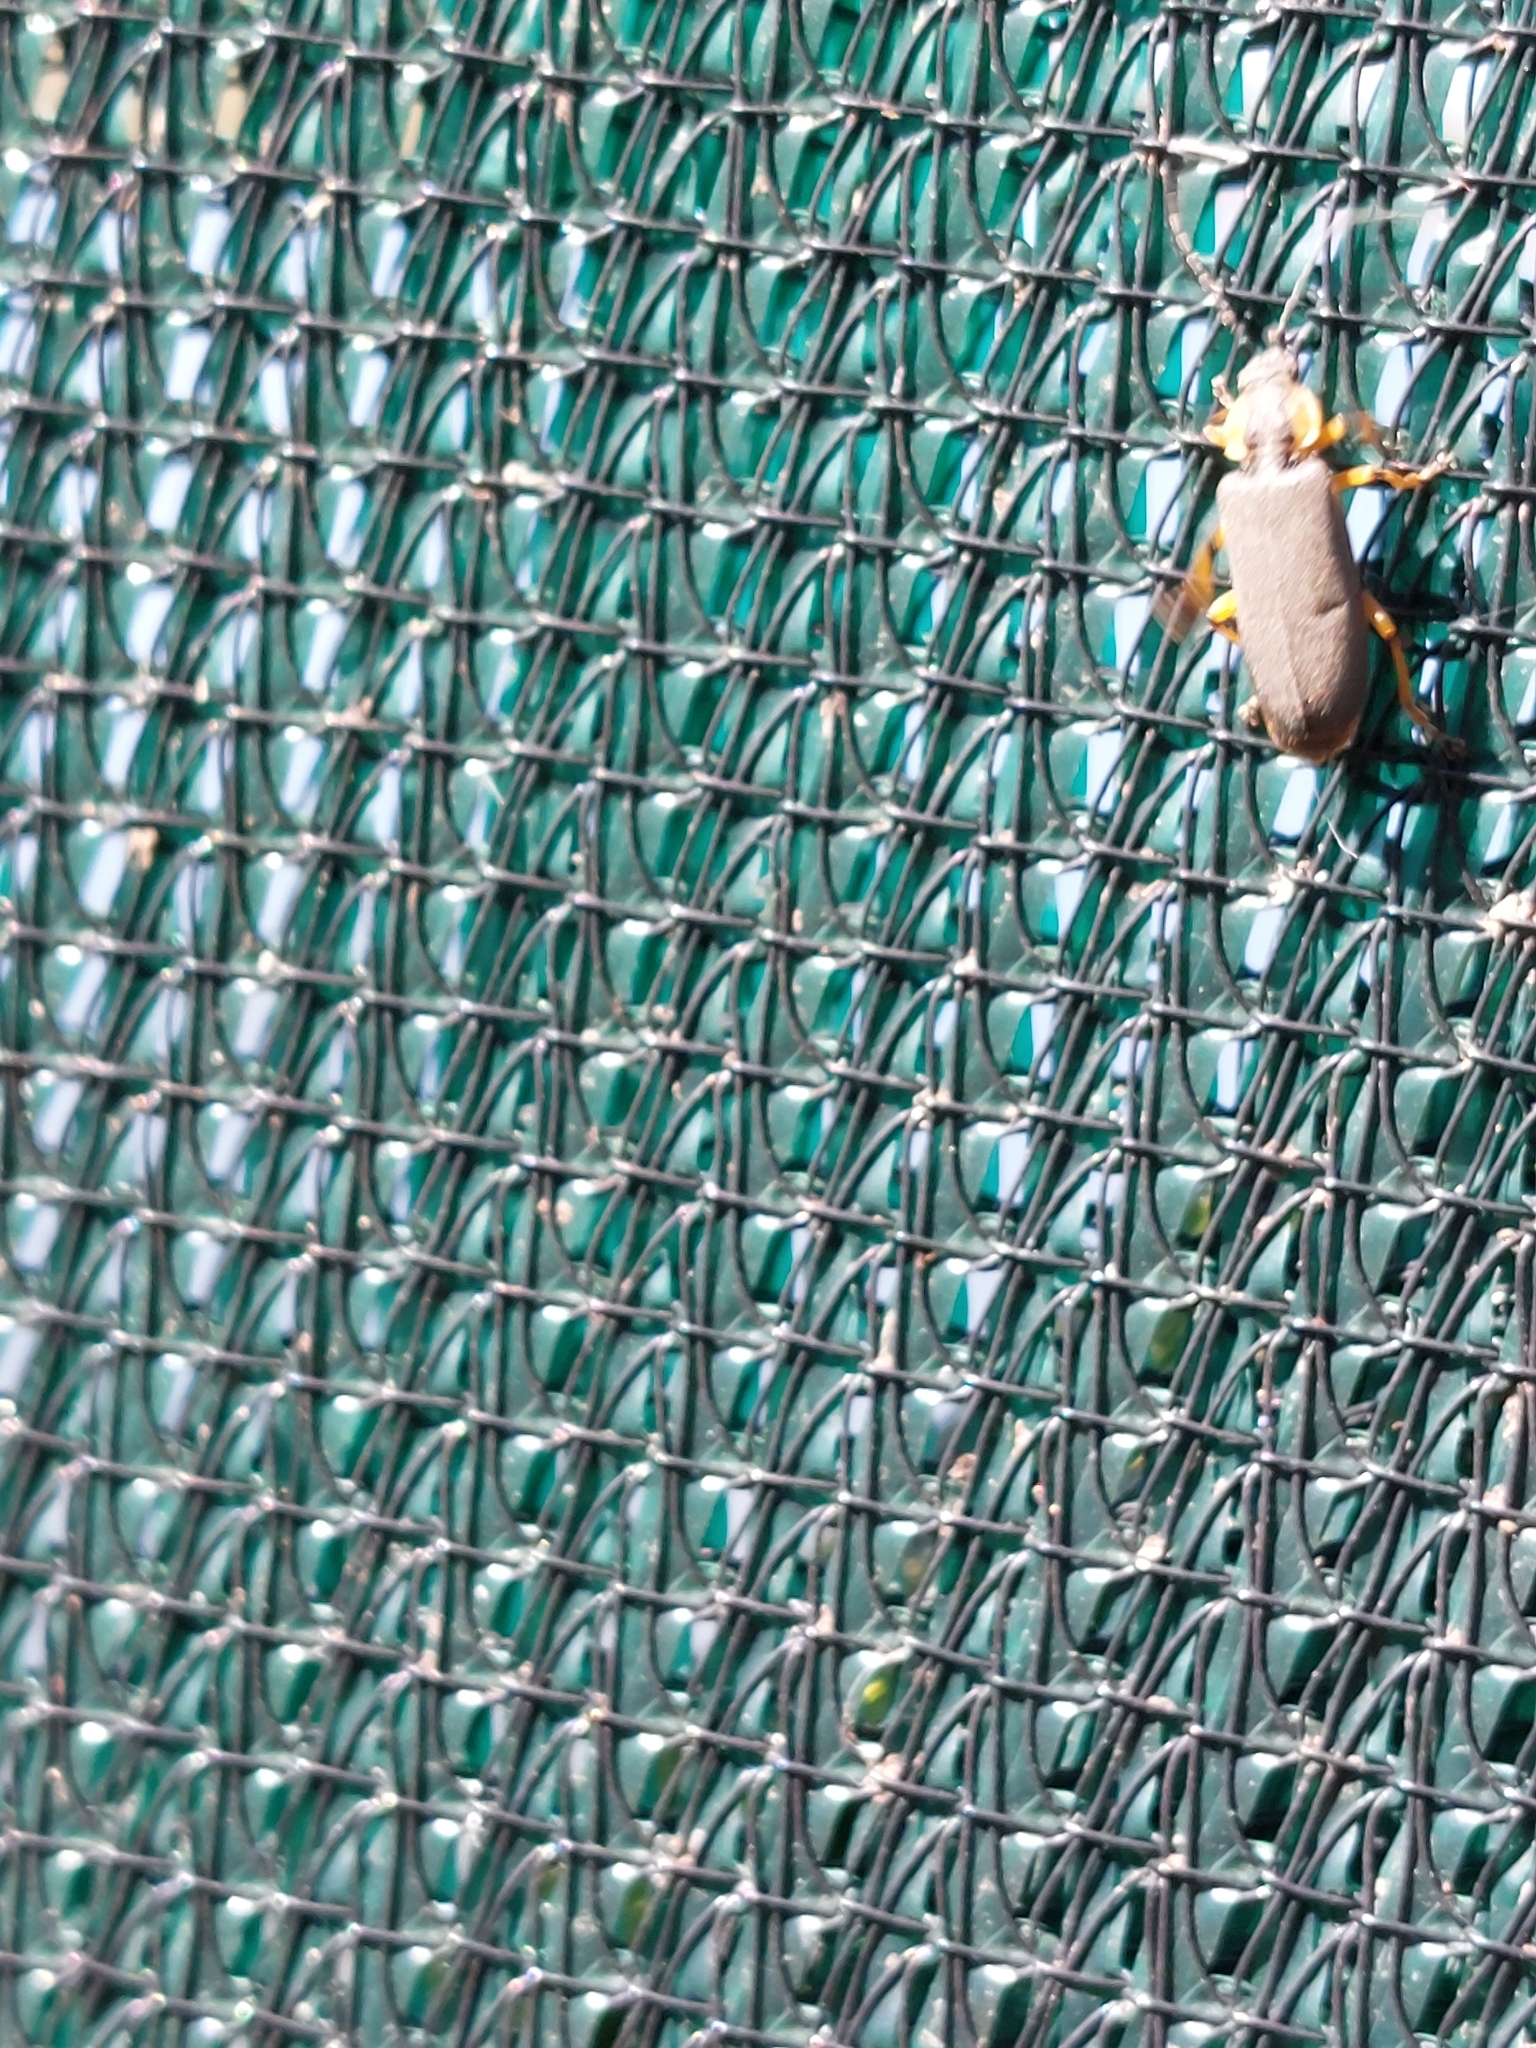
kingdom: Animalia
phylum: Arthropoda
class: Insecta
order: Coleoptera
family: Cantharidae
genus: Afronycha
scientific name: Afronycha
